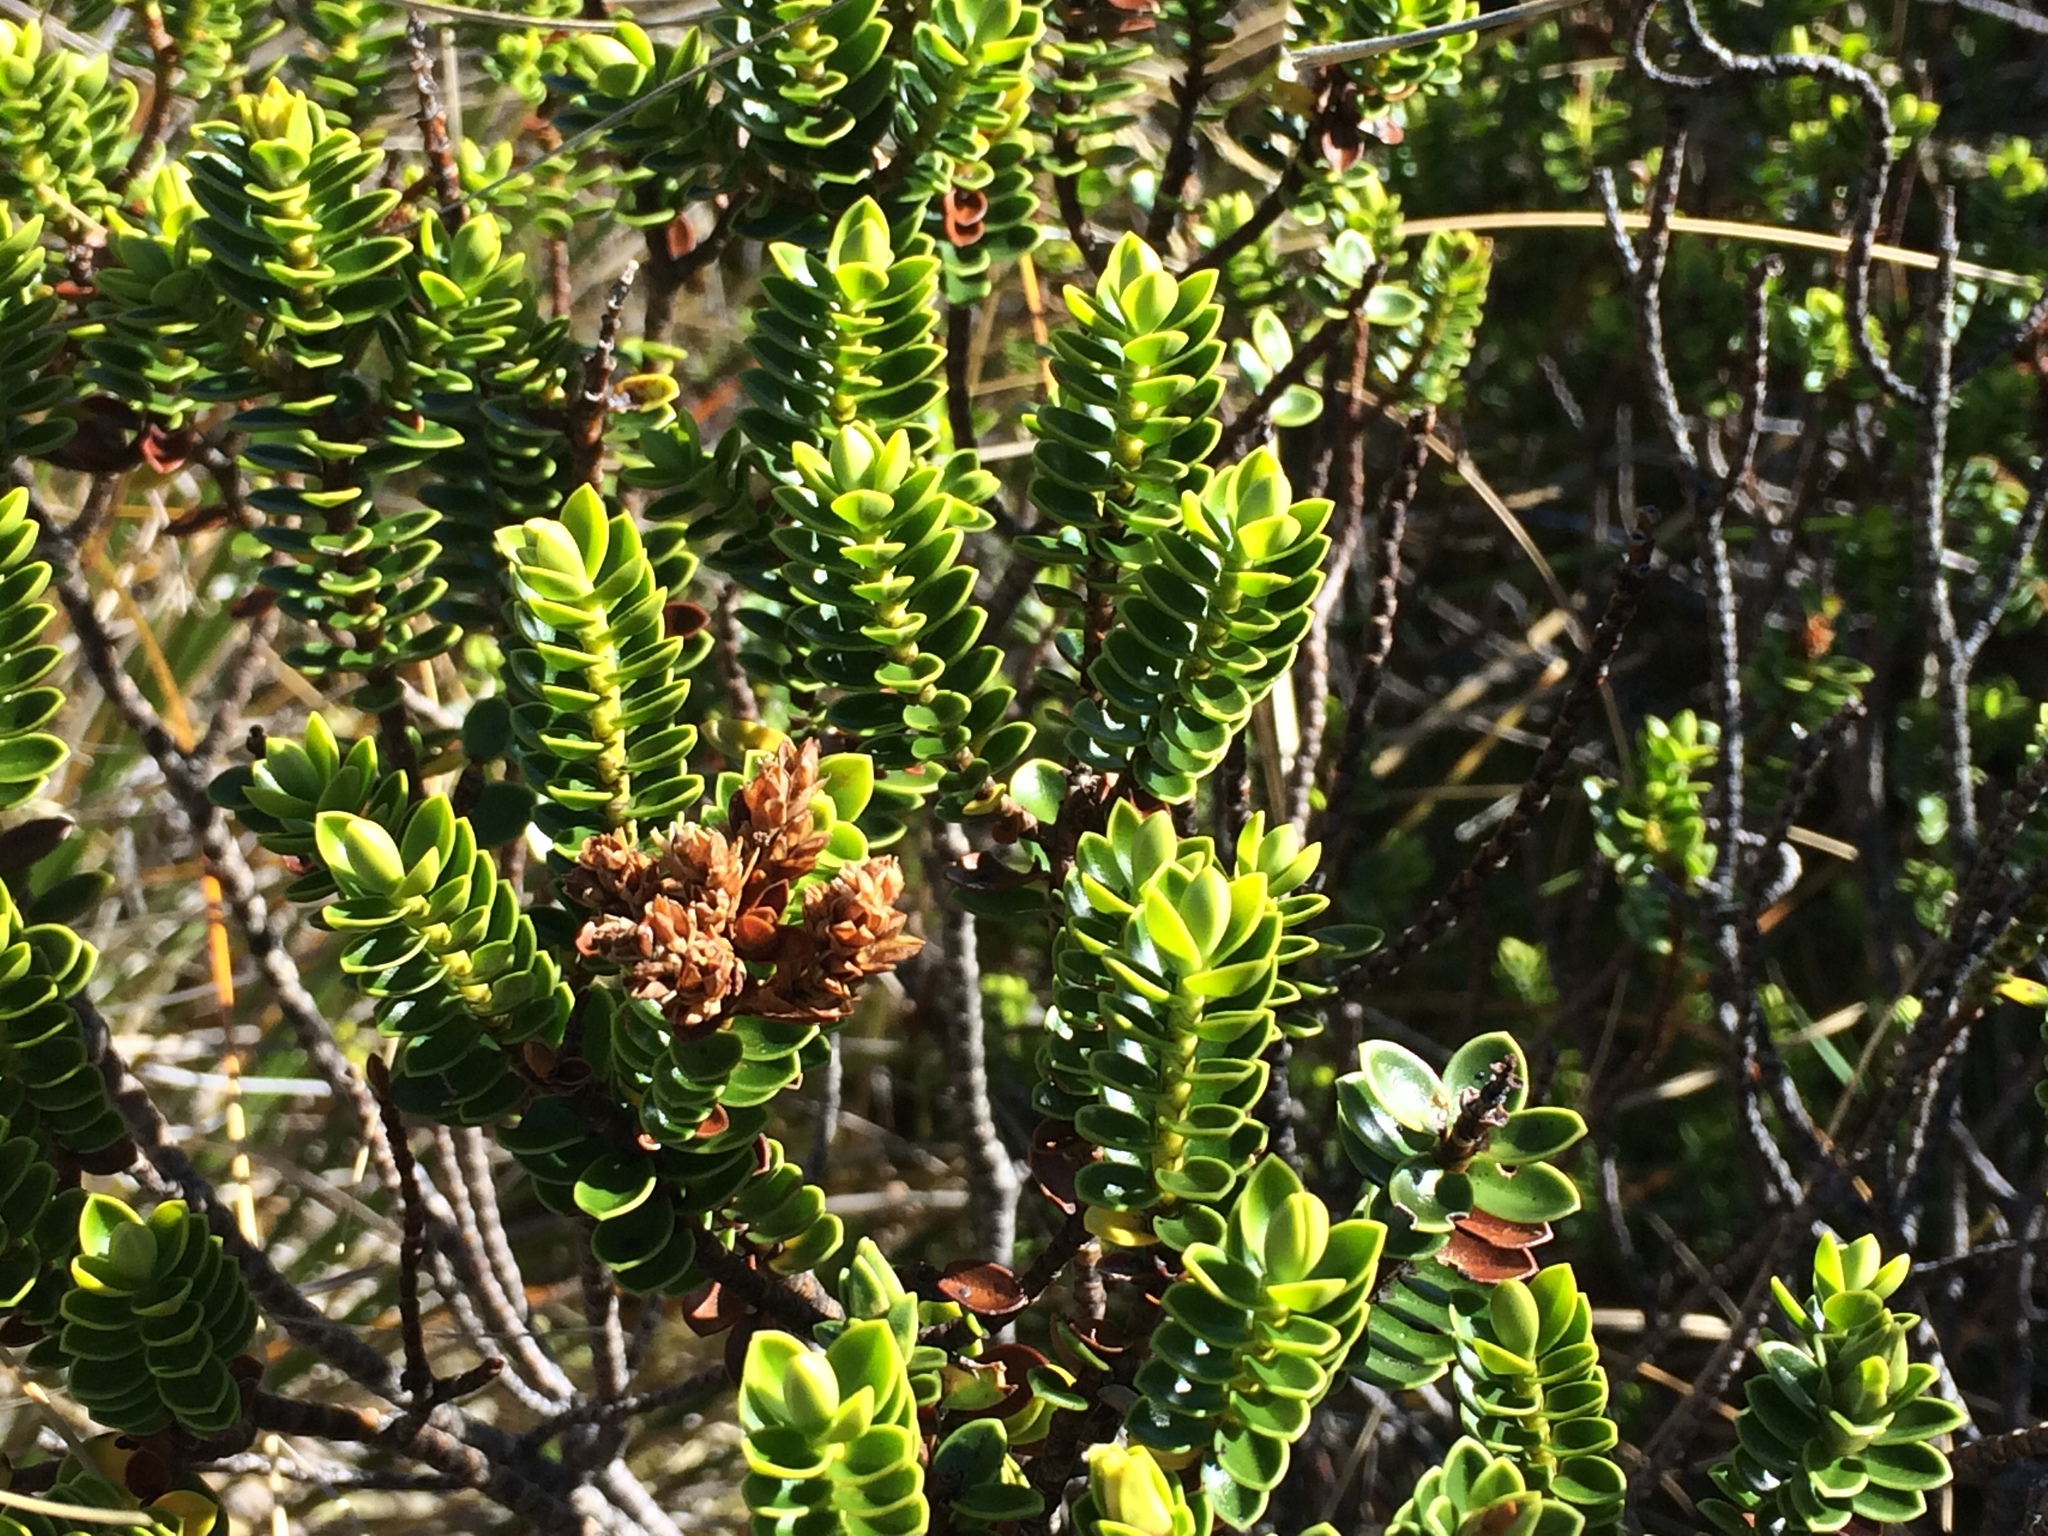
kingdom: Plantae
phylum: Tracheophyta
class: Magnoliopsida
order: Lamiales
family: Plantaginaceae
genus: Veronica
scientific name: Veronica odora
